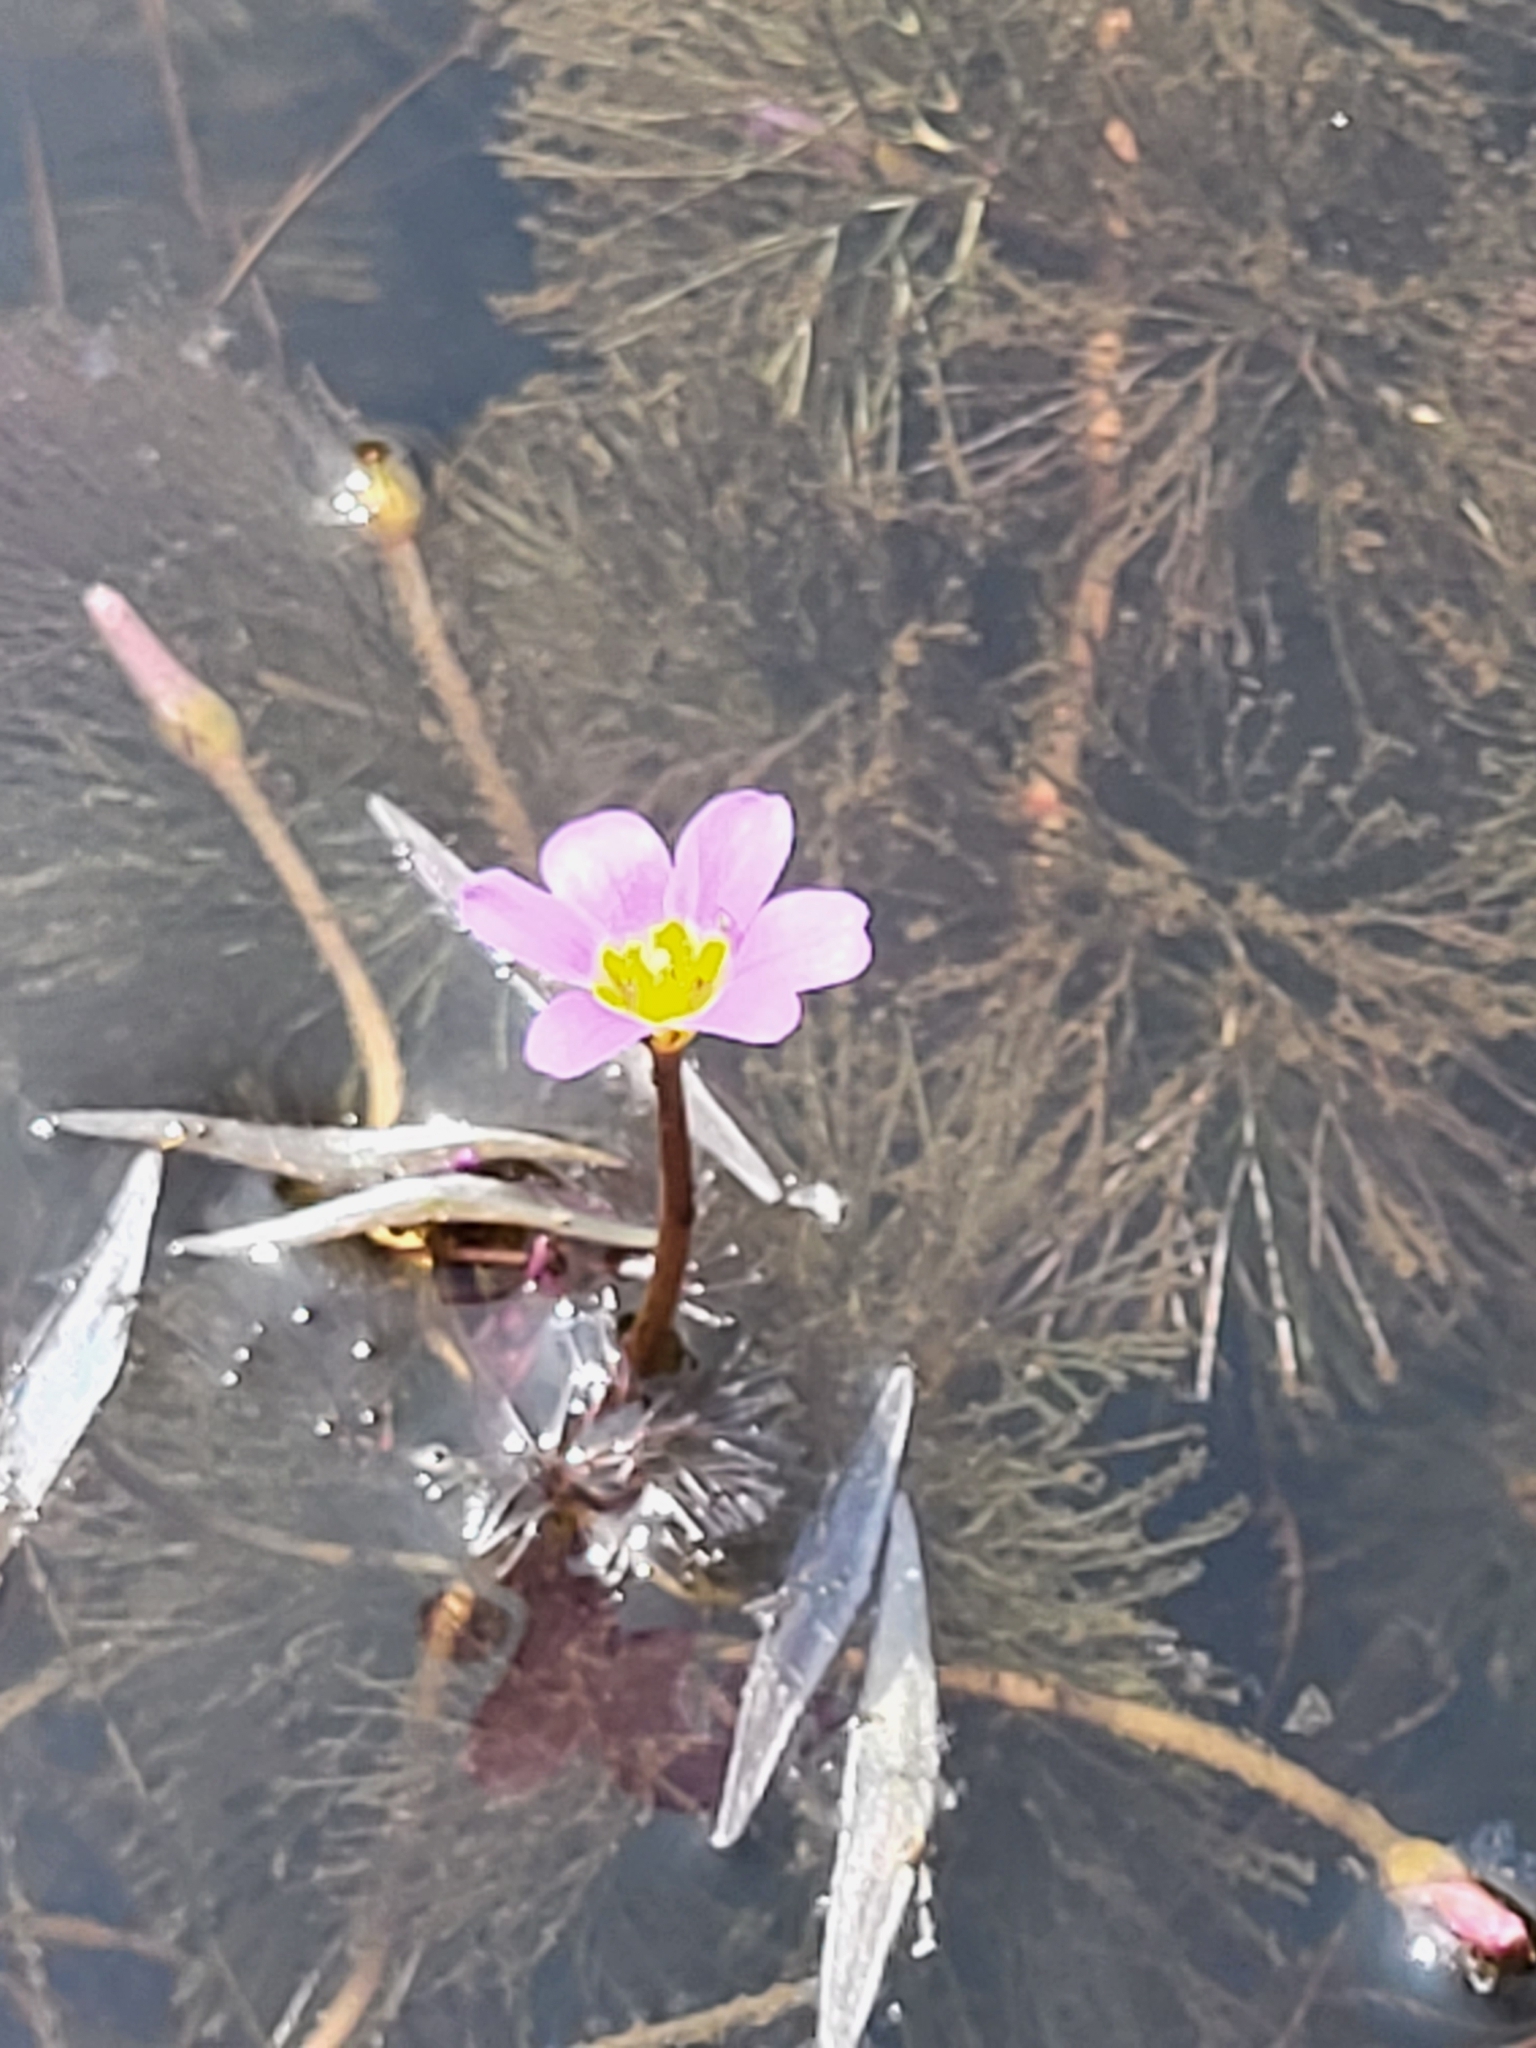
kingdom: Plantae
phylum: Tracheophyta
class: Magnoliopsida
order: Nymphaeales
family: Cabombaceae
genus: Cabomba
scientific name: Cabomba furcata
